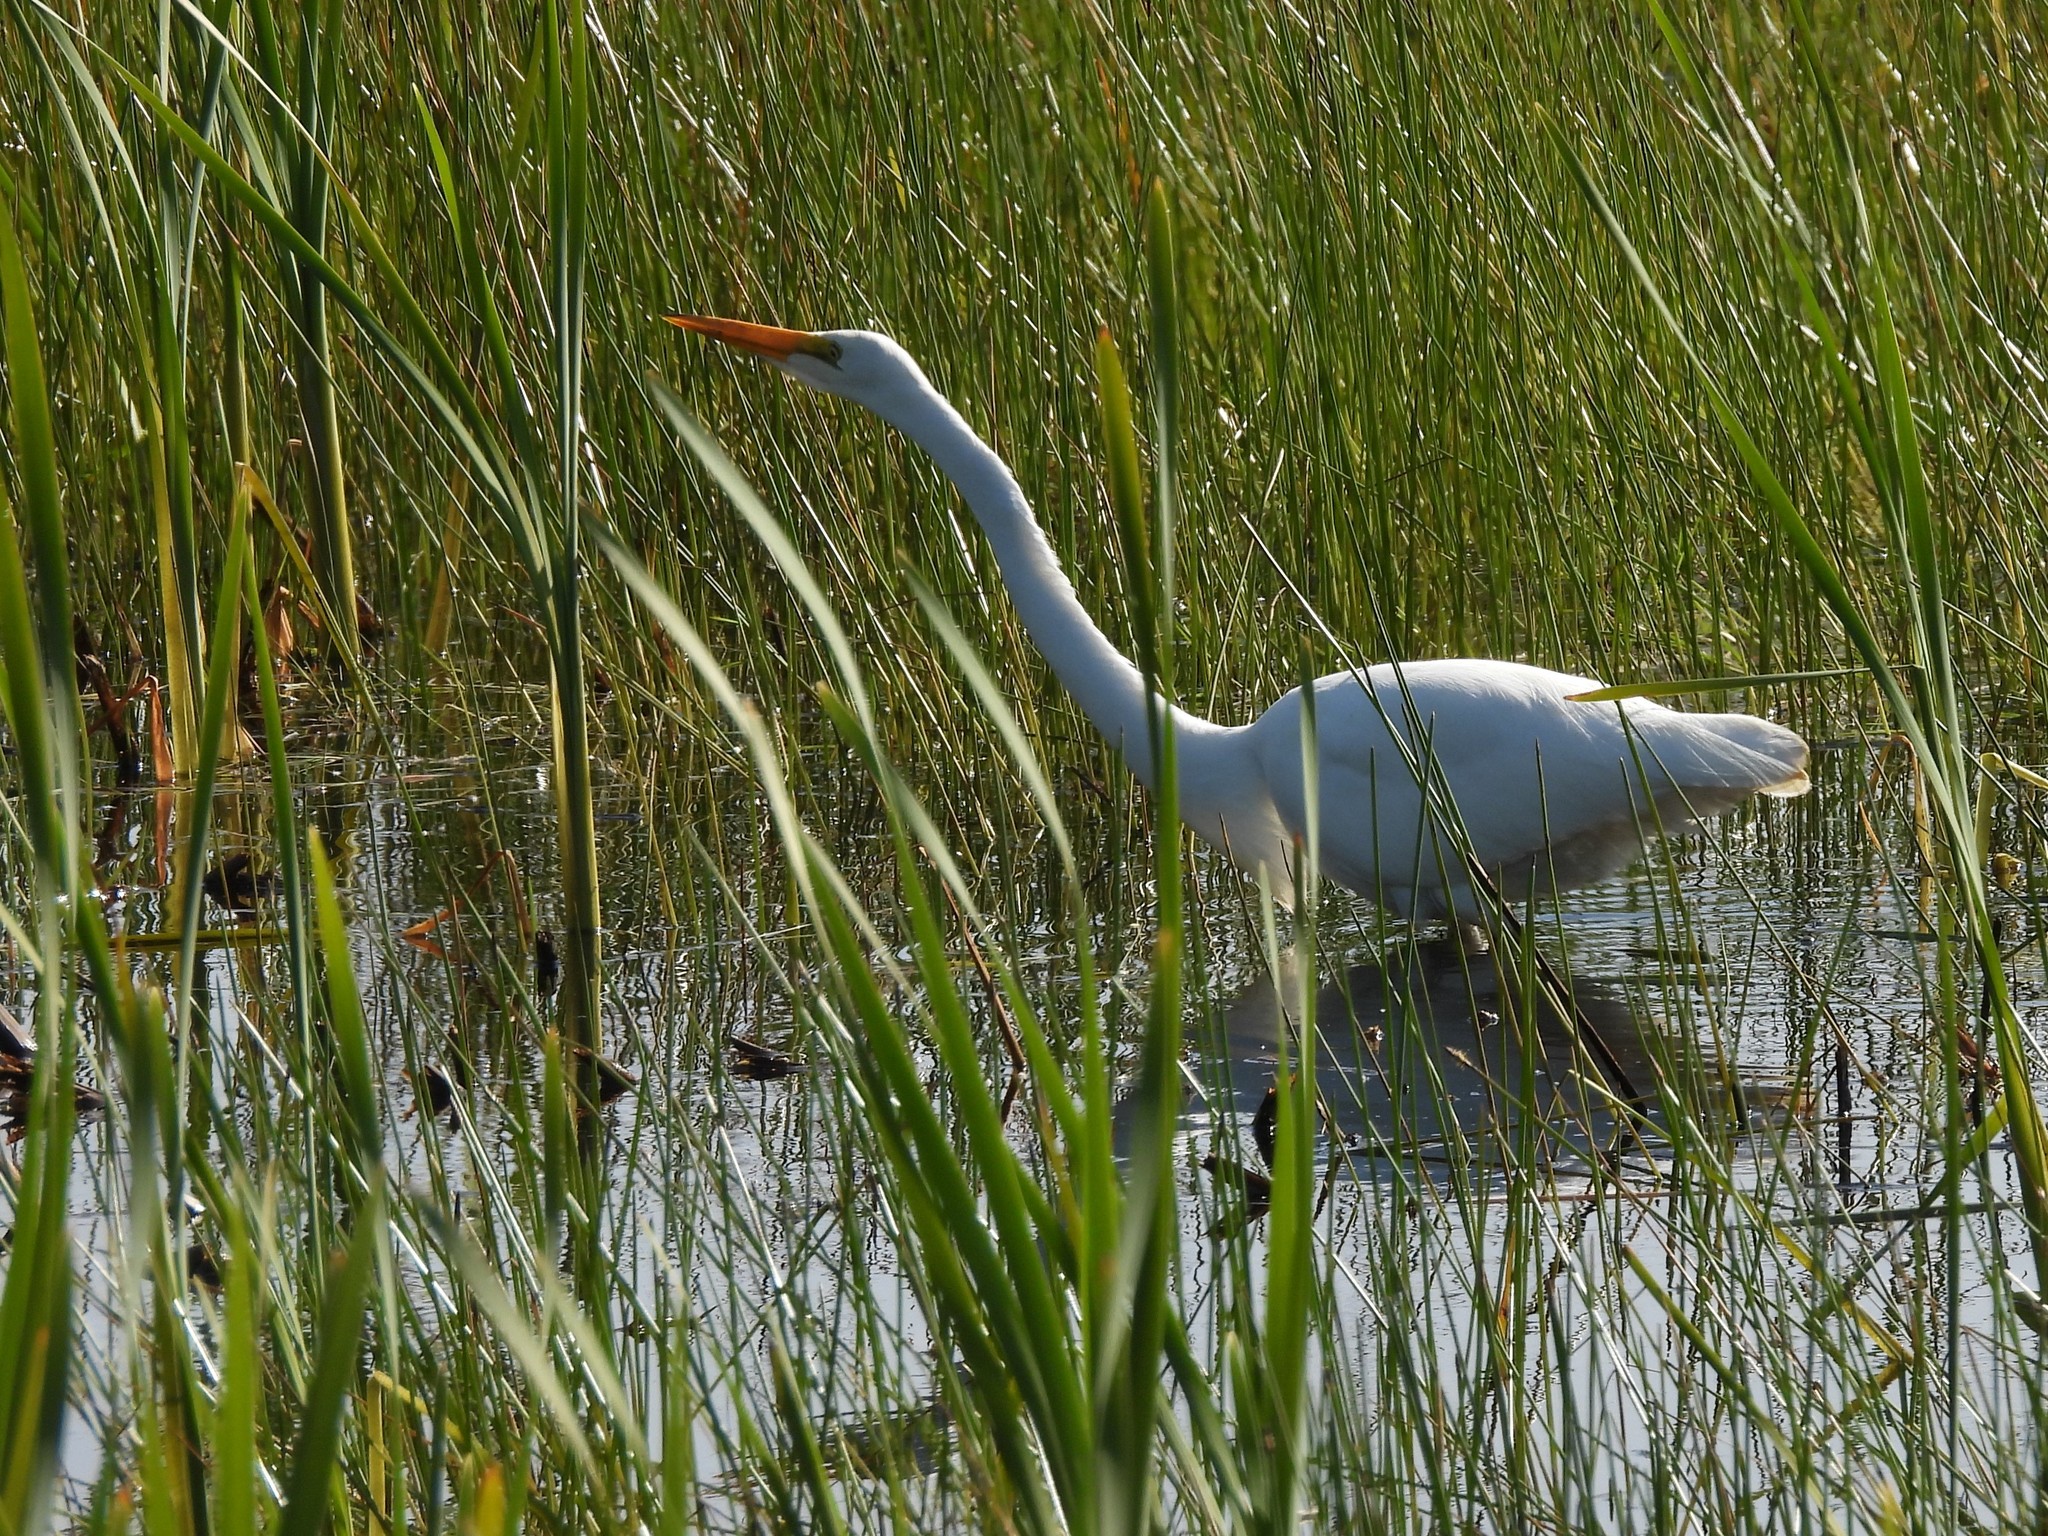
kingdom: Animalia
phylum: Chordata
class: Aves
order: Pelecaniformes
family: Ardeidae
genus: Ardea
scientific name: Ardea alba
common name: Great egret
